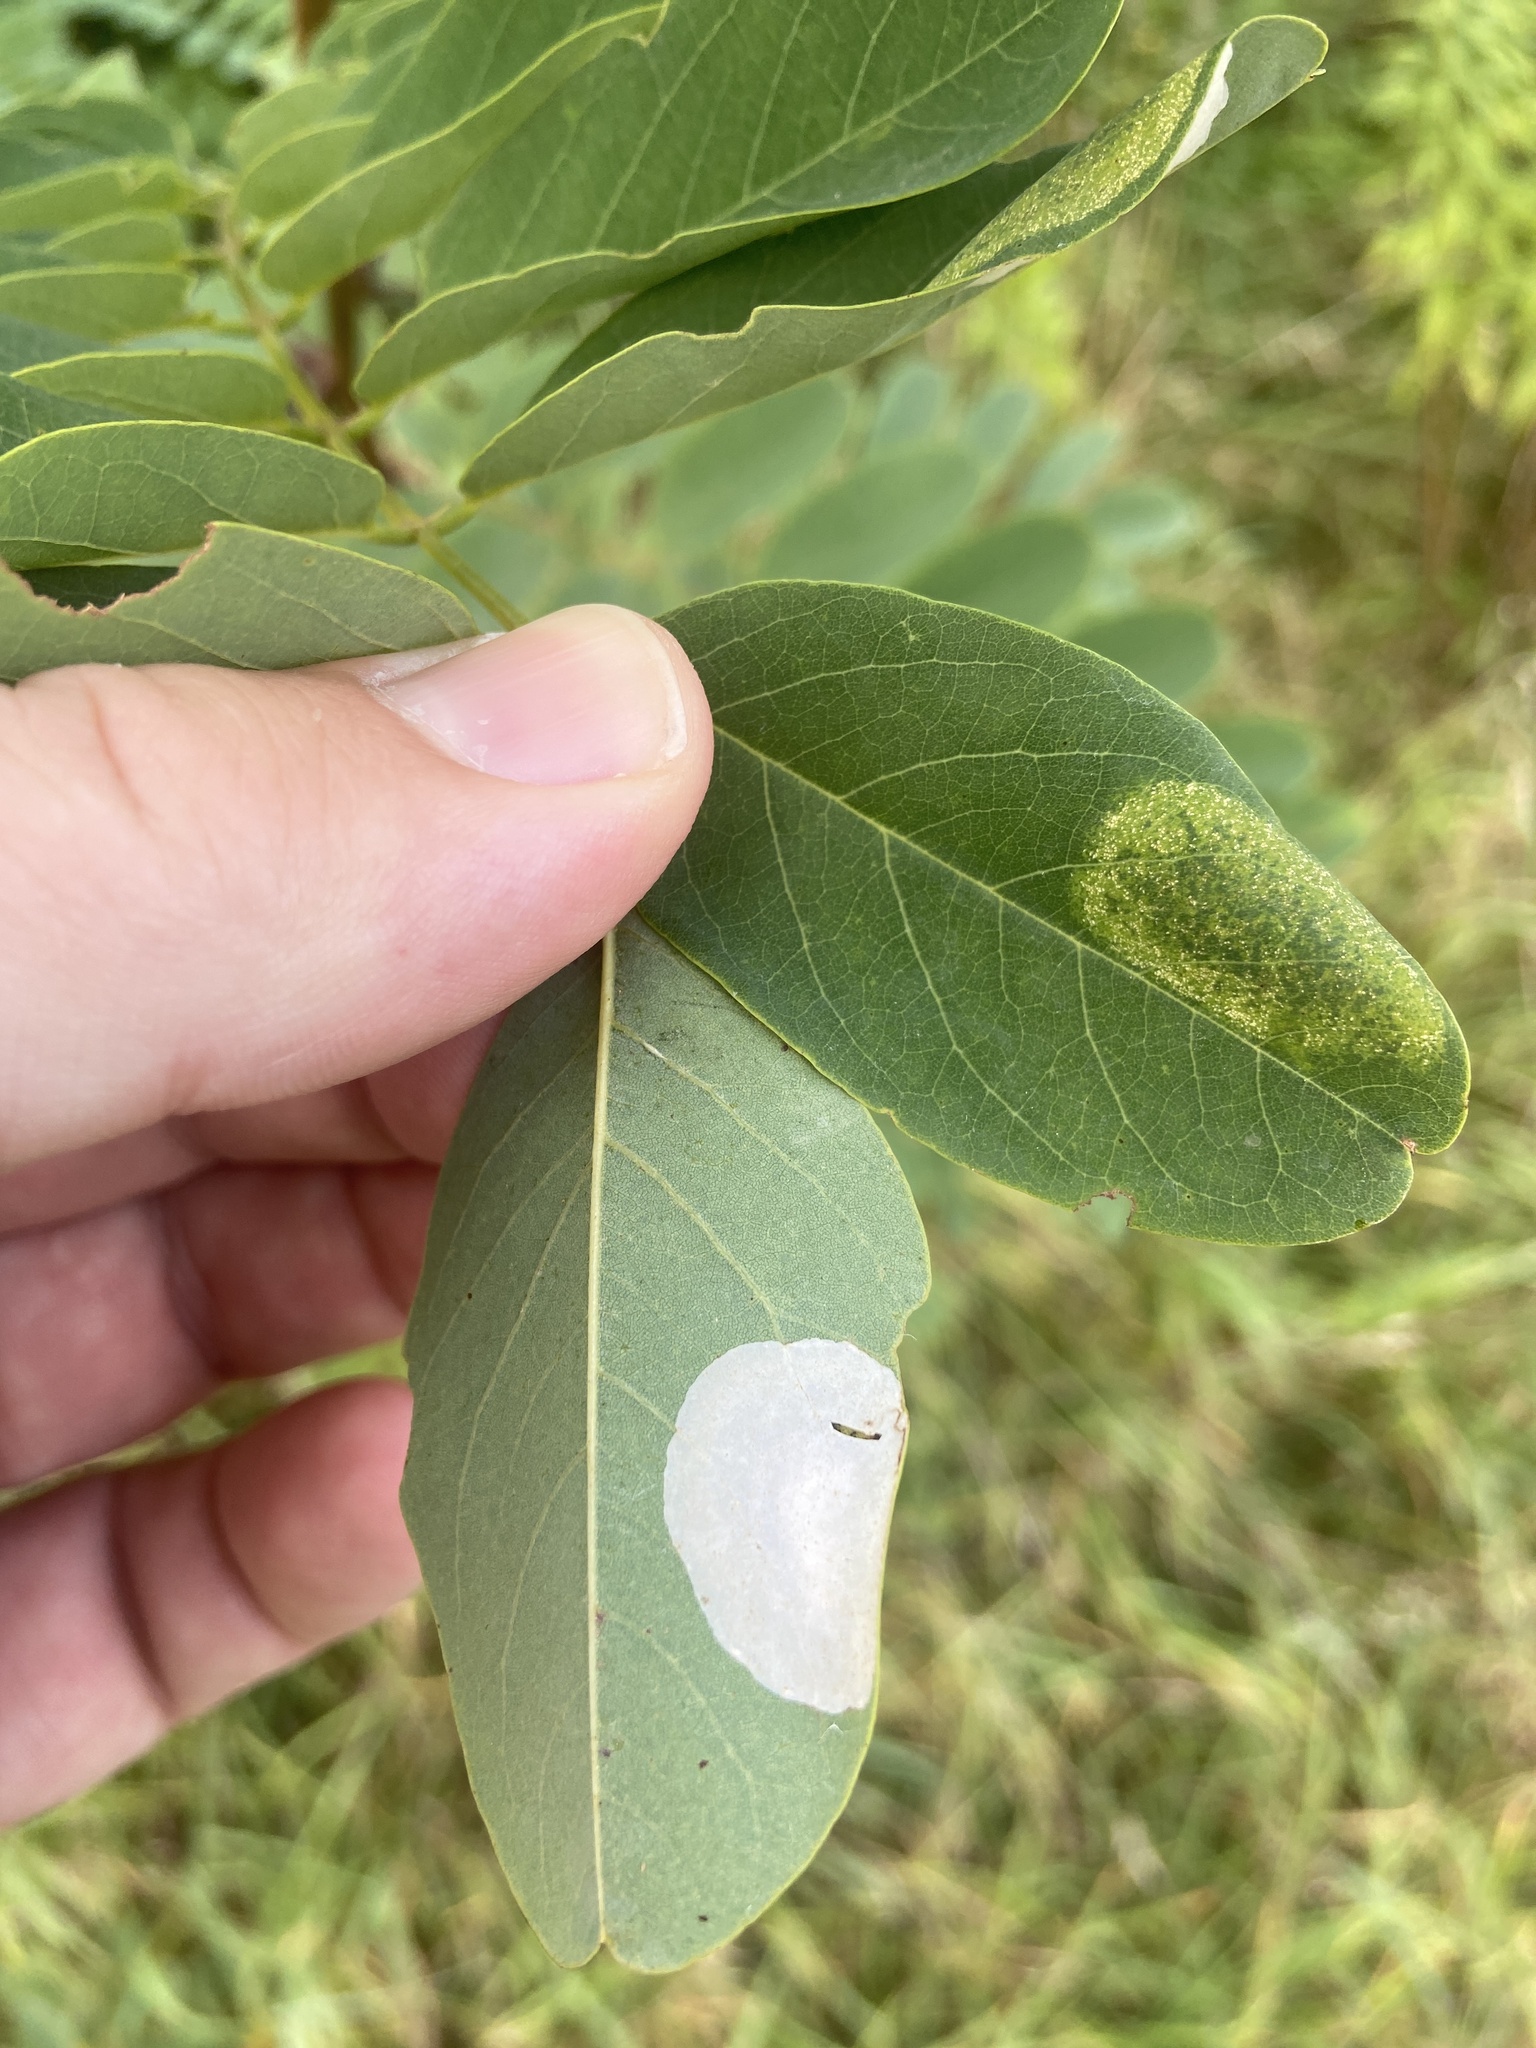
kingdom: Animalia
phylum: Arthropoda
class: Insecta
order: Lepidoptera
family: Gracillariidae
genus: Macrosaccus
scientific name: Macrosaccus robiniella
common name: Leaf blotch miner moth
